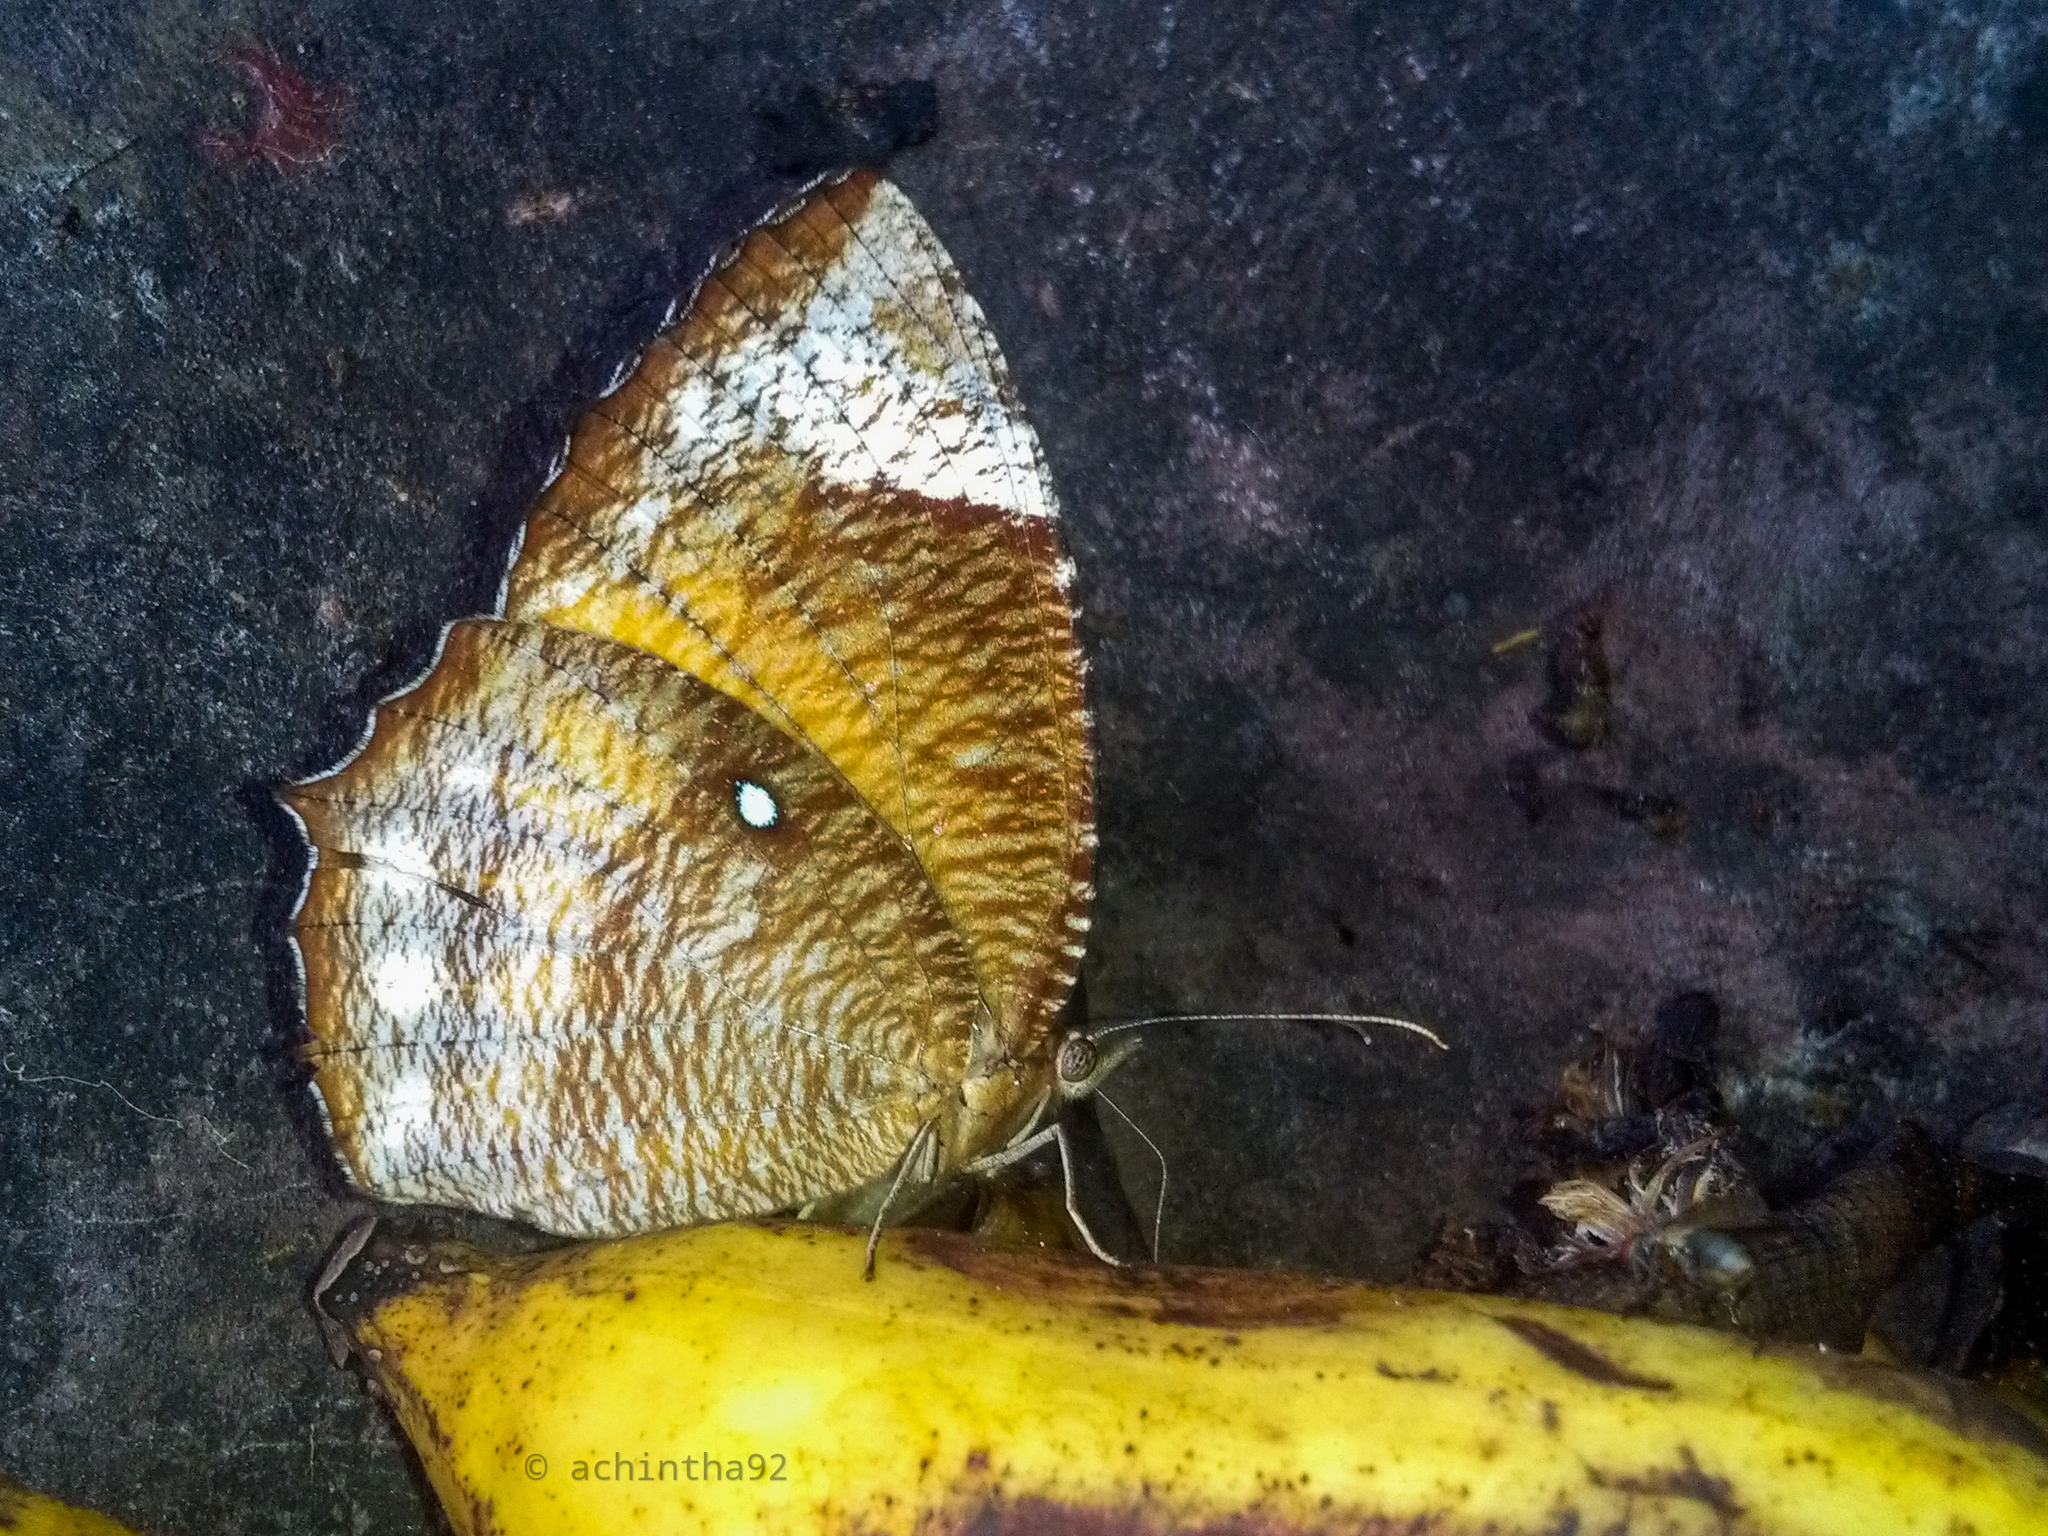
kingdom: Animalia
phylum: Arthropoda
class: Insecta
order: Lepidoptera
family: Nymphalidae
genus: Elymnias
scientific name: Elymnias hypermnestra
